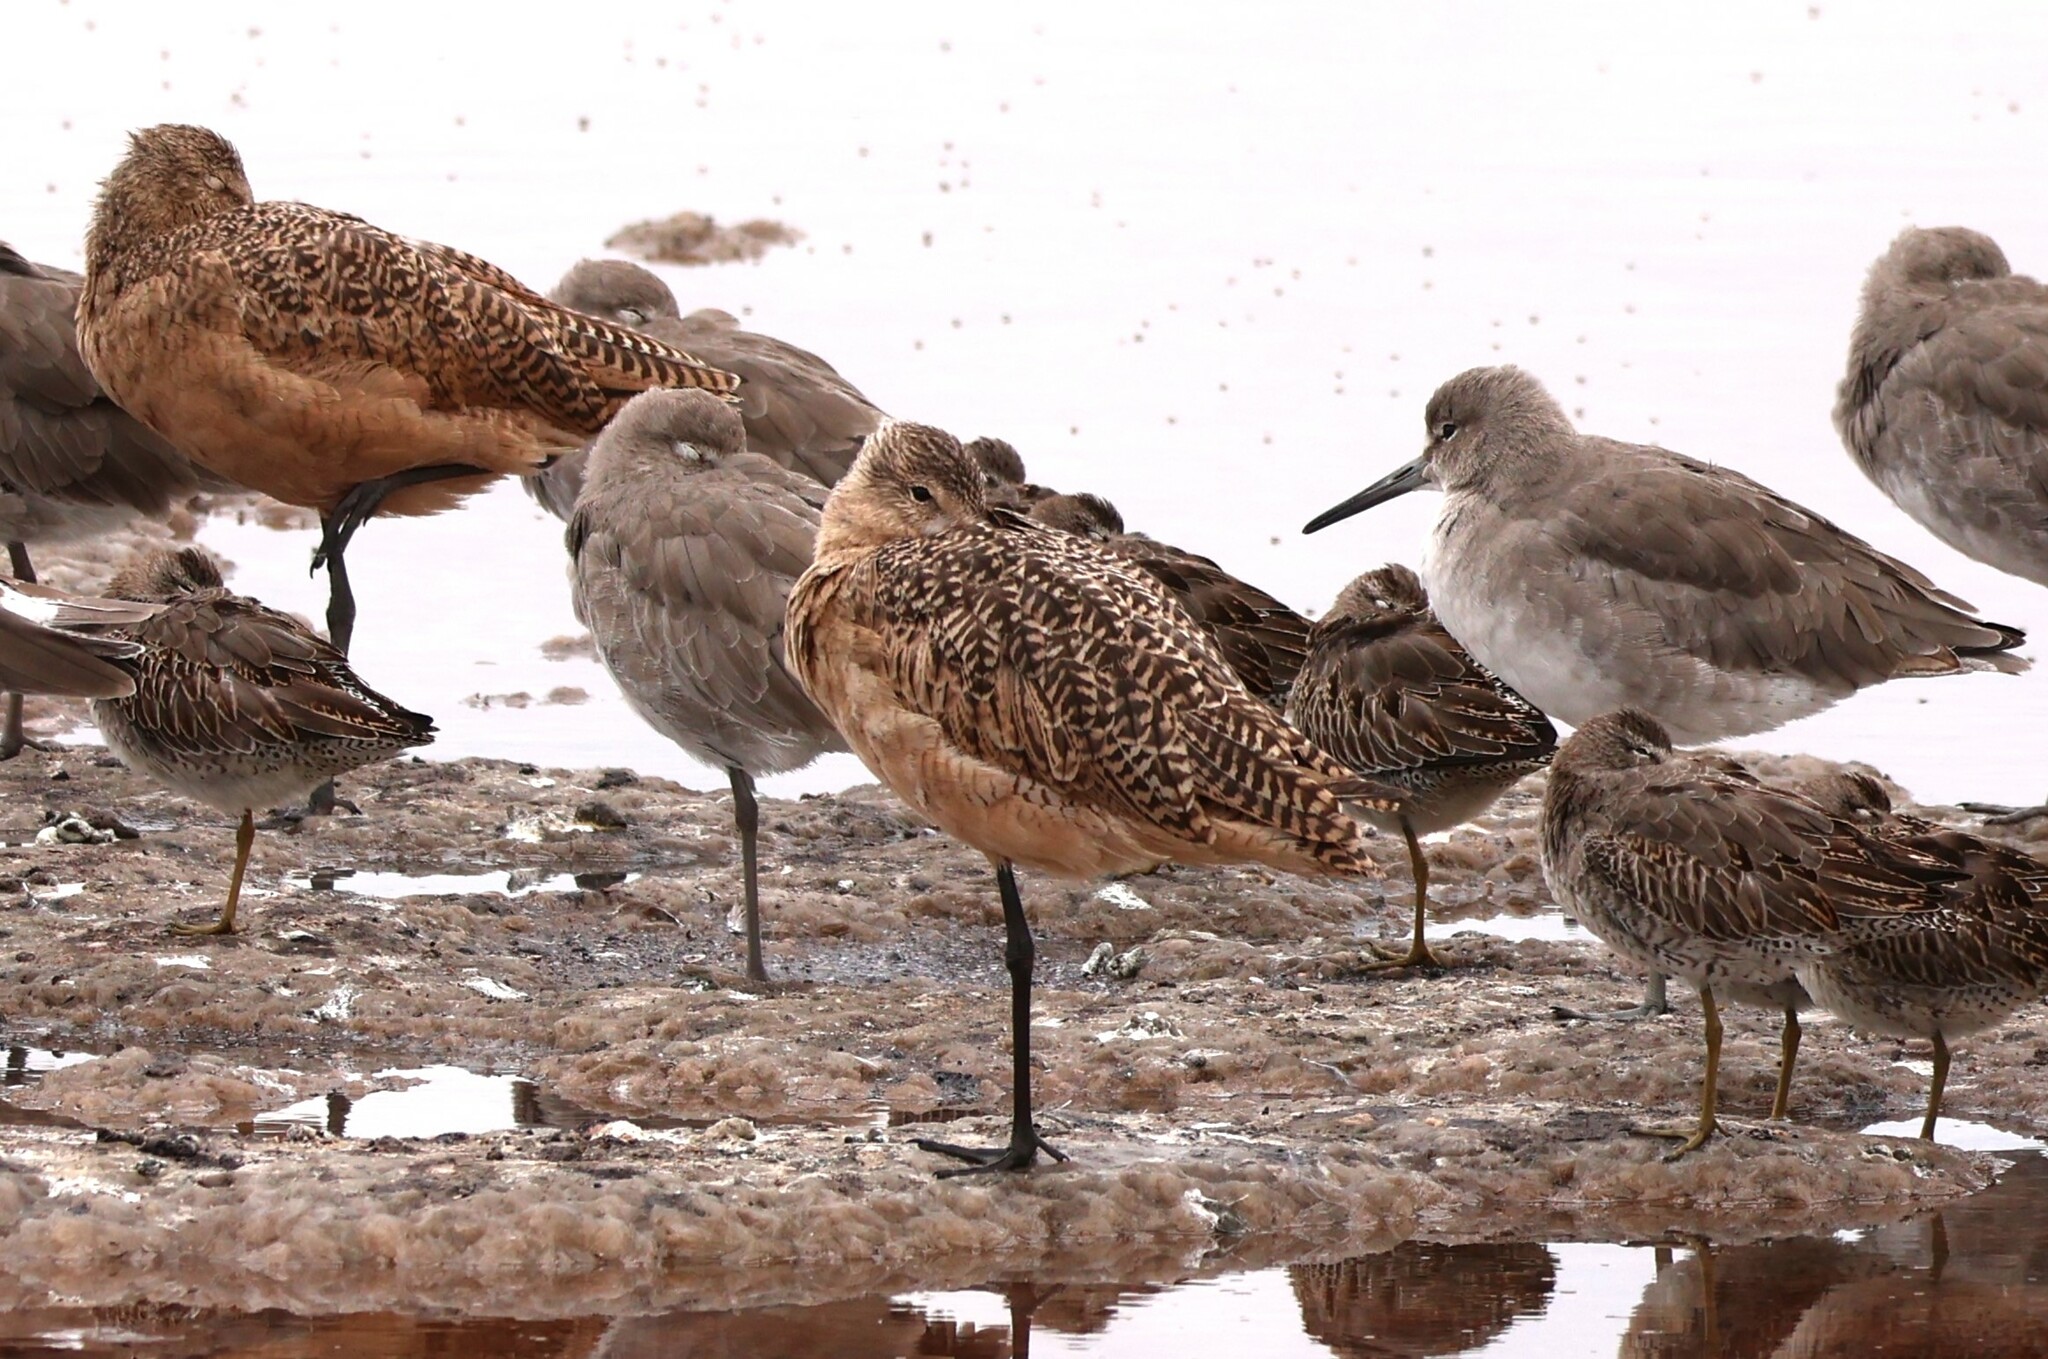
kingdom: Animalia
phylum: Chordata
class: Aves
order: Charadriiformes
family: Scolopacidae
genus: Limosa
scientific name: Limosa fedoa
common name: Marbled godwit
